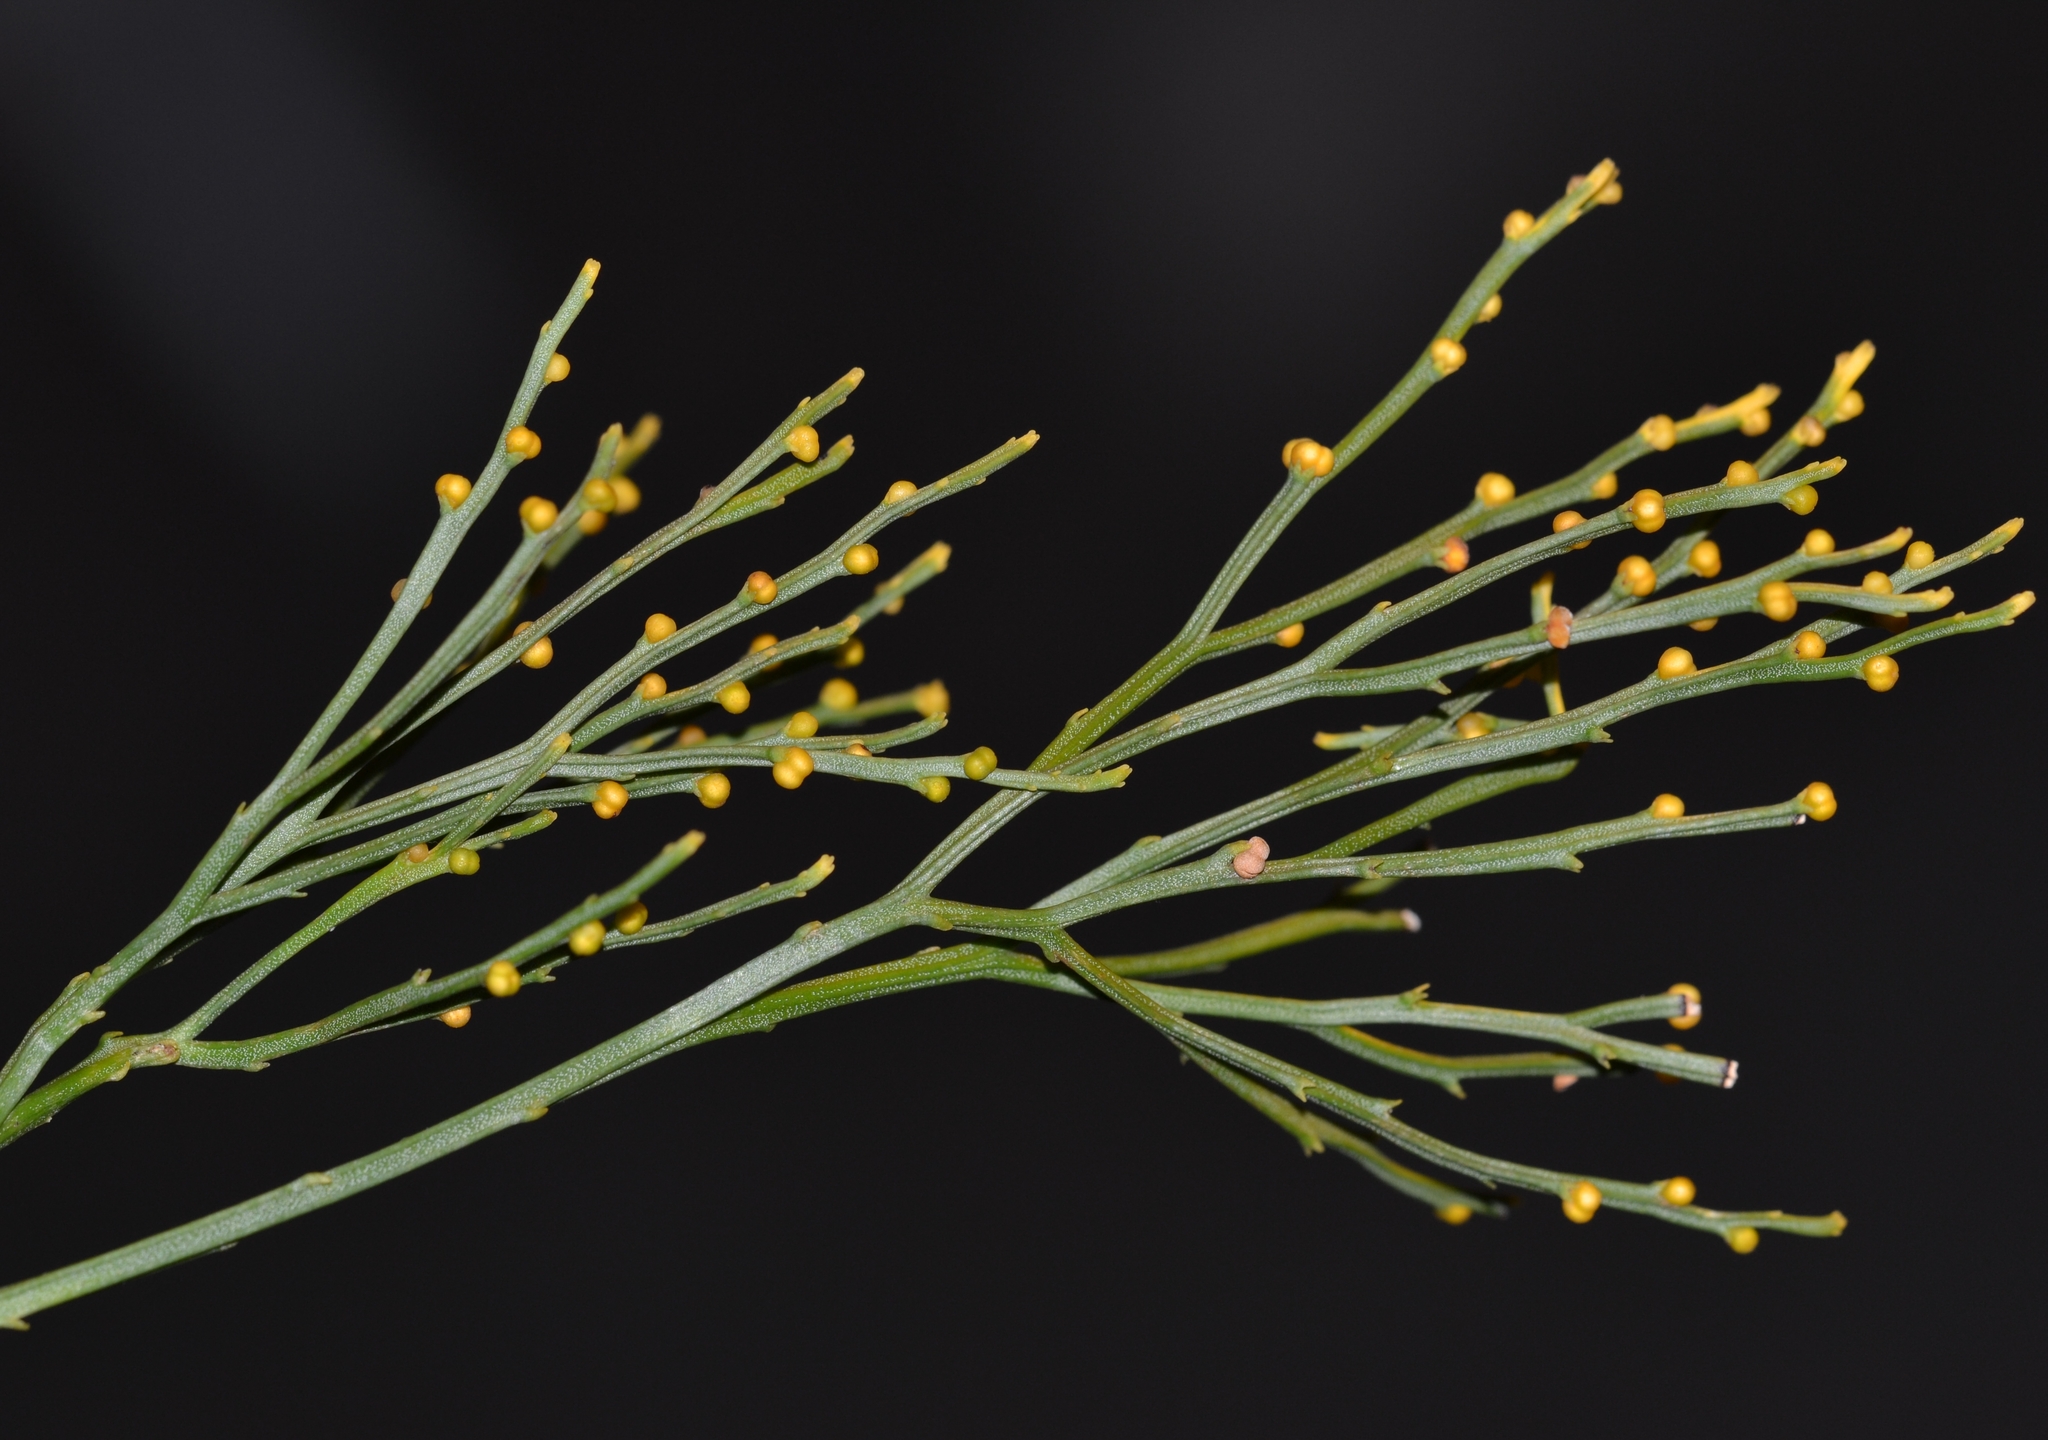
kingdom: Plantae
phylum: Tracheophyta
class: Polypodiopsida
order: Psilotales
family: Psilotaceae
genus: Psilotum
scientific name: Psilotum nudum
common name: Skeleton fork fern
